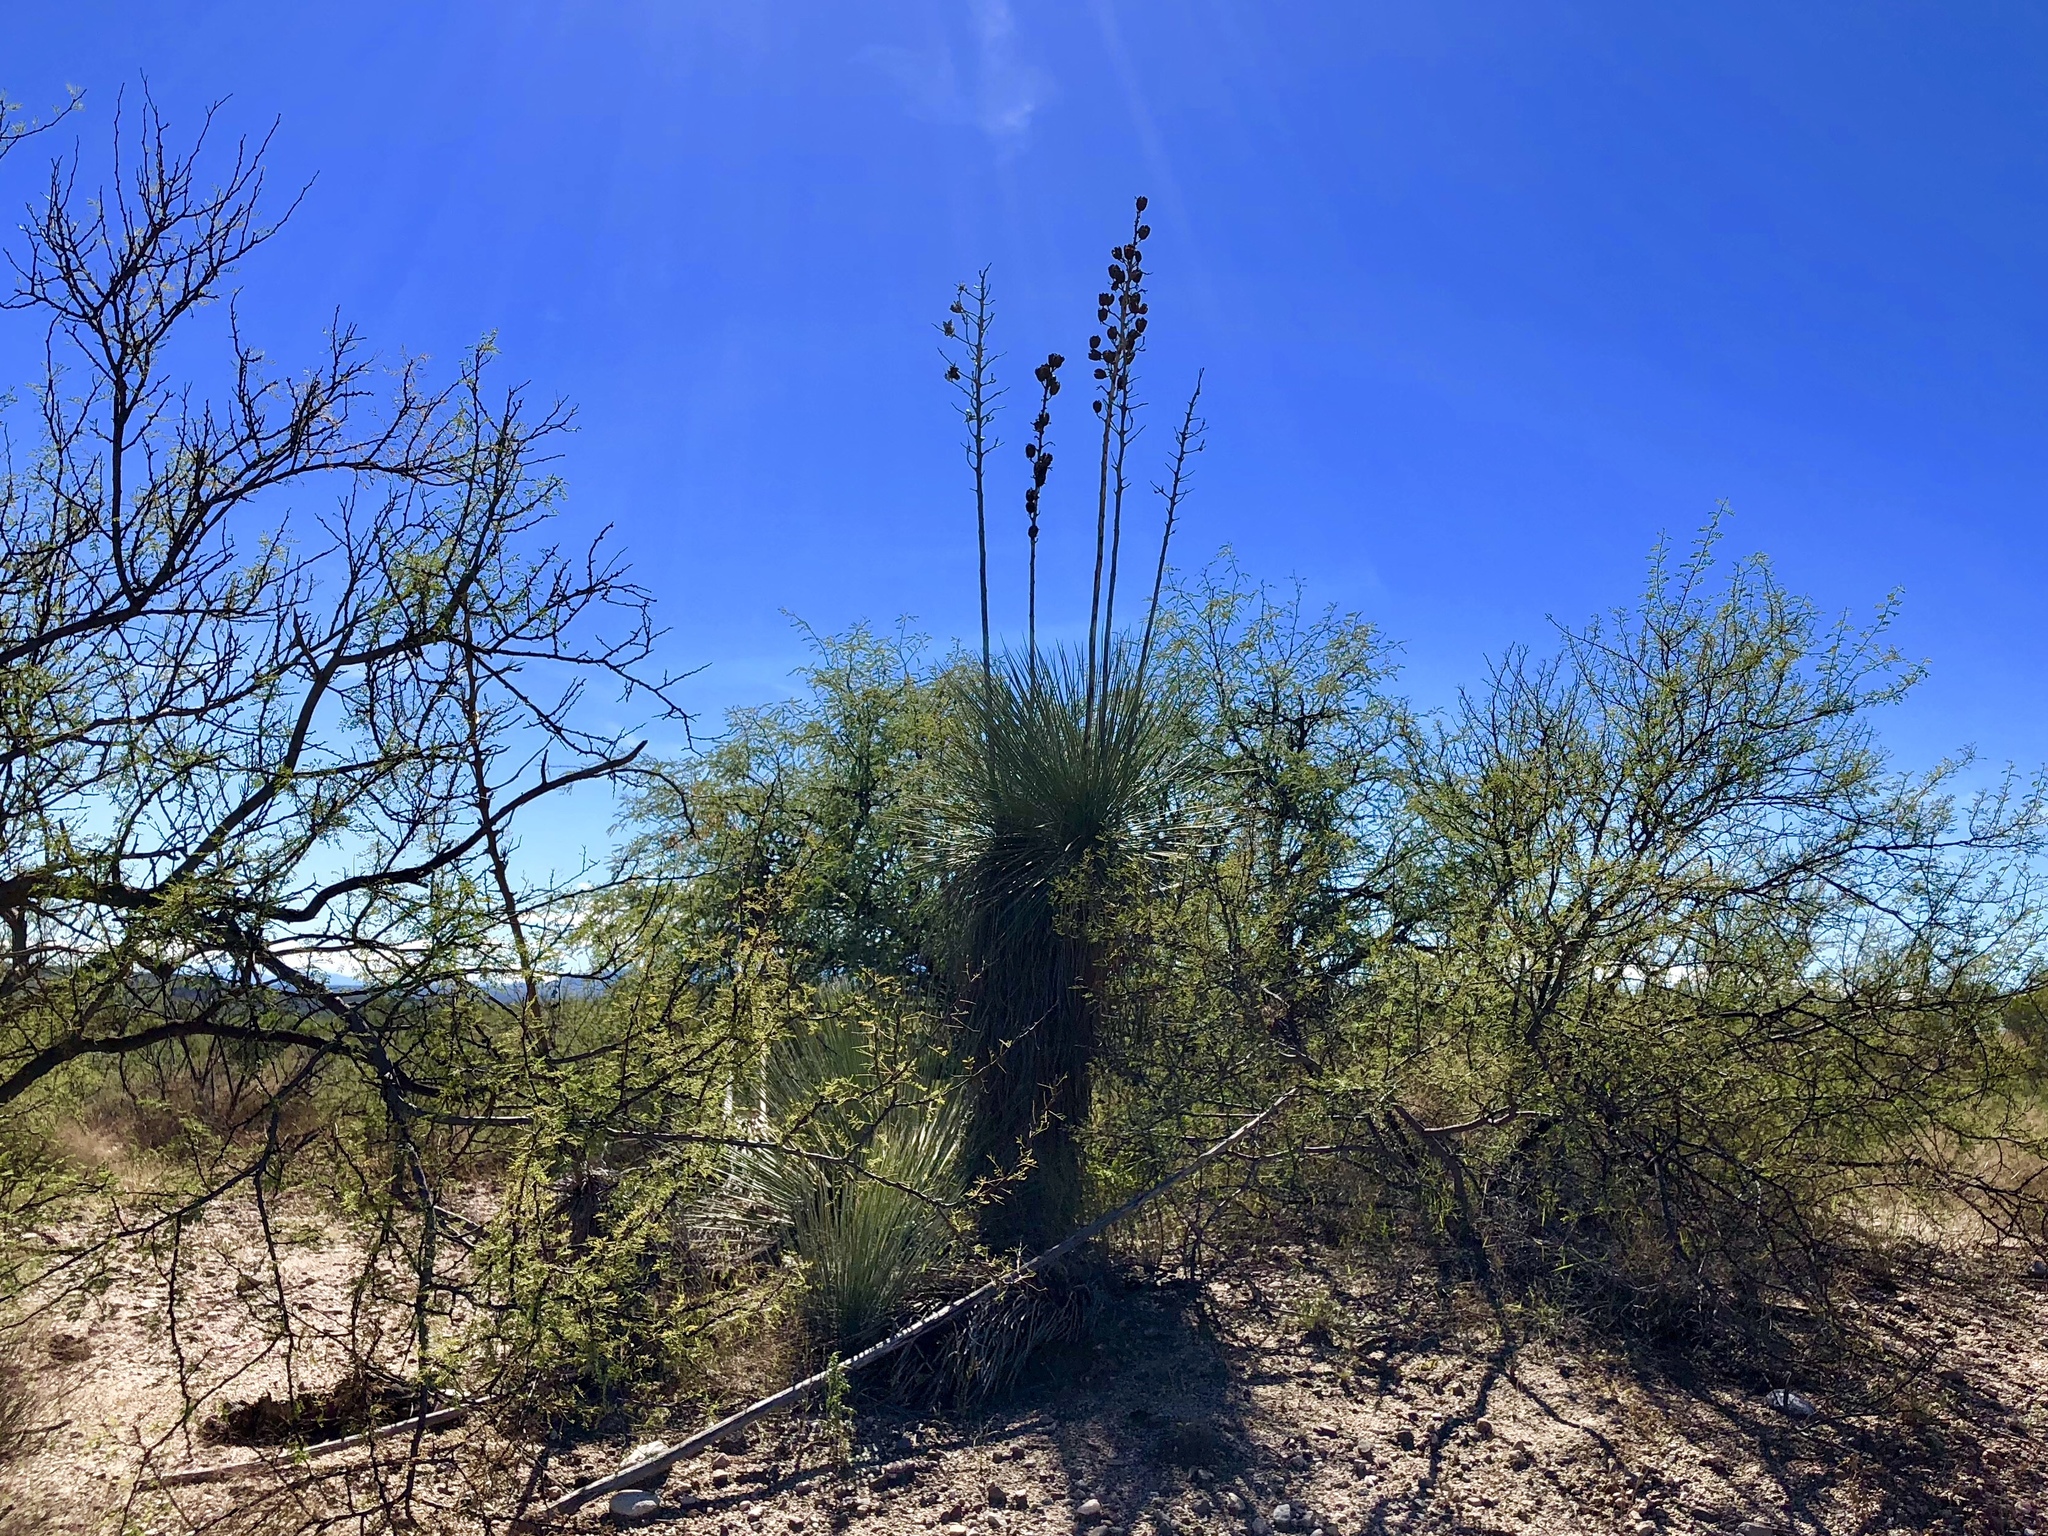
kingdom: Plantae
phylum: Tracheophyta
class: Liliopsida
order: Asparagales
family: Asparagaceae
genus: Yucca
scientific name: Yucca elata
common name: Palmella
